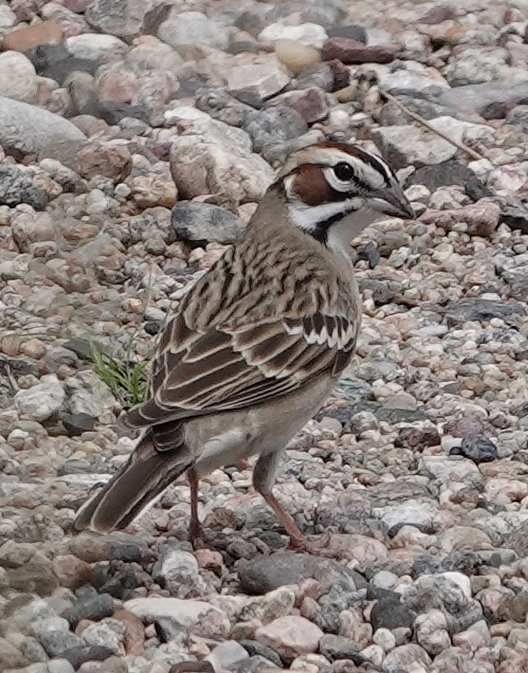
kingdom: Animalia
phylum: Chordata
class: Aves
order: Passeriformes
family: Passerellidae
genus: Chondestes
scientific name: Chondestes grammacus
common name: Lark sparrow
